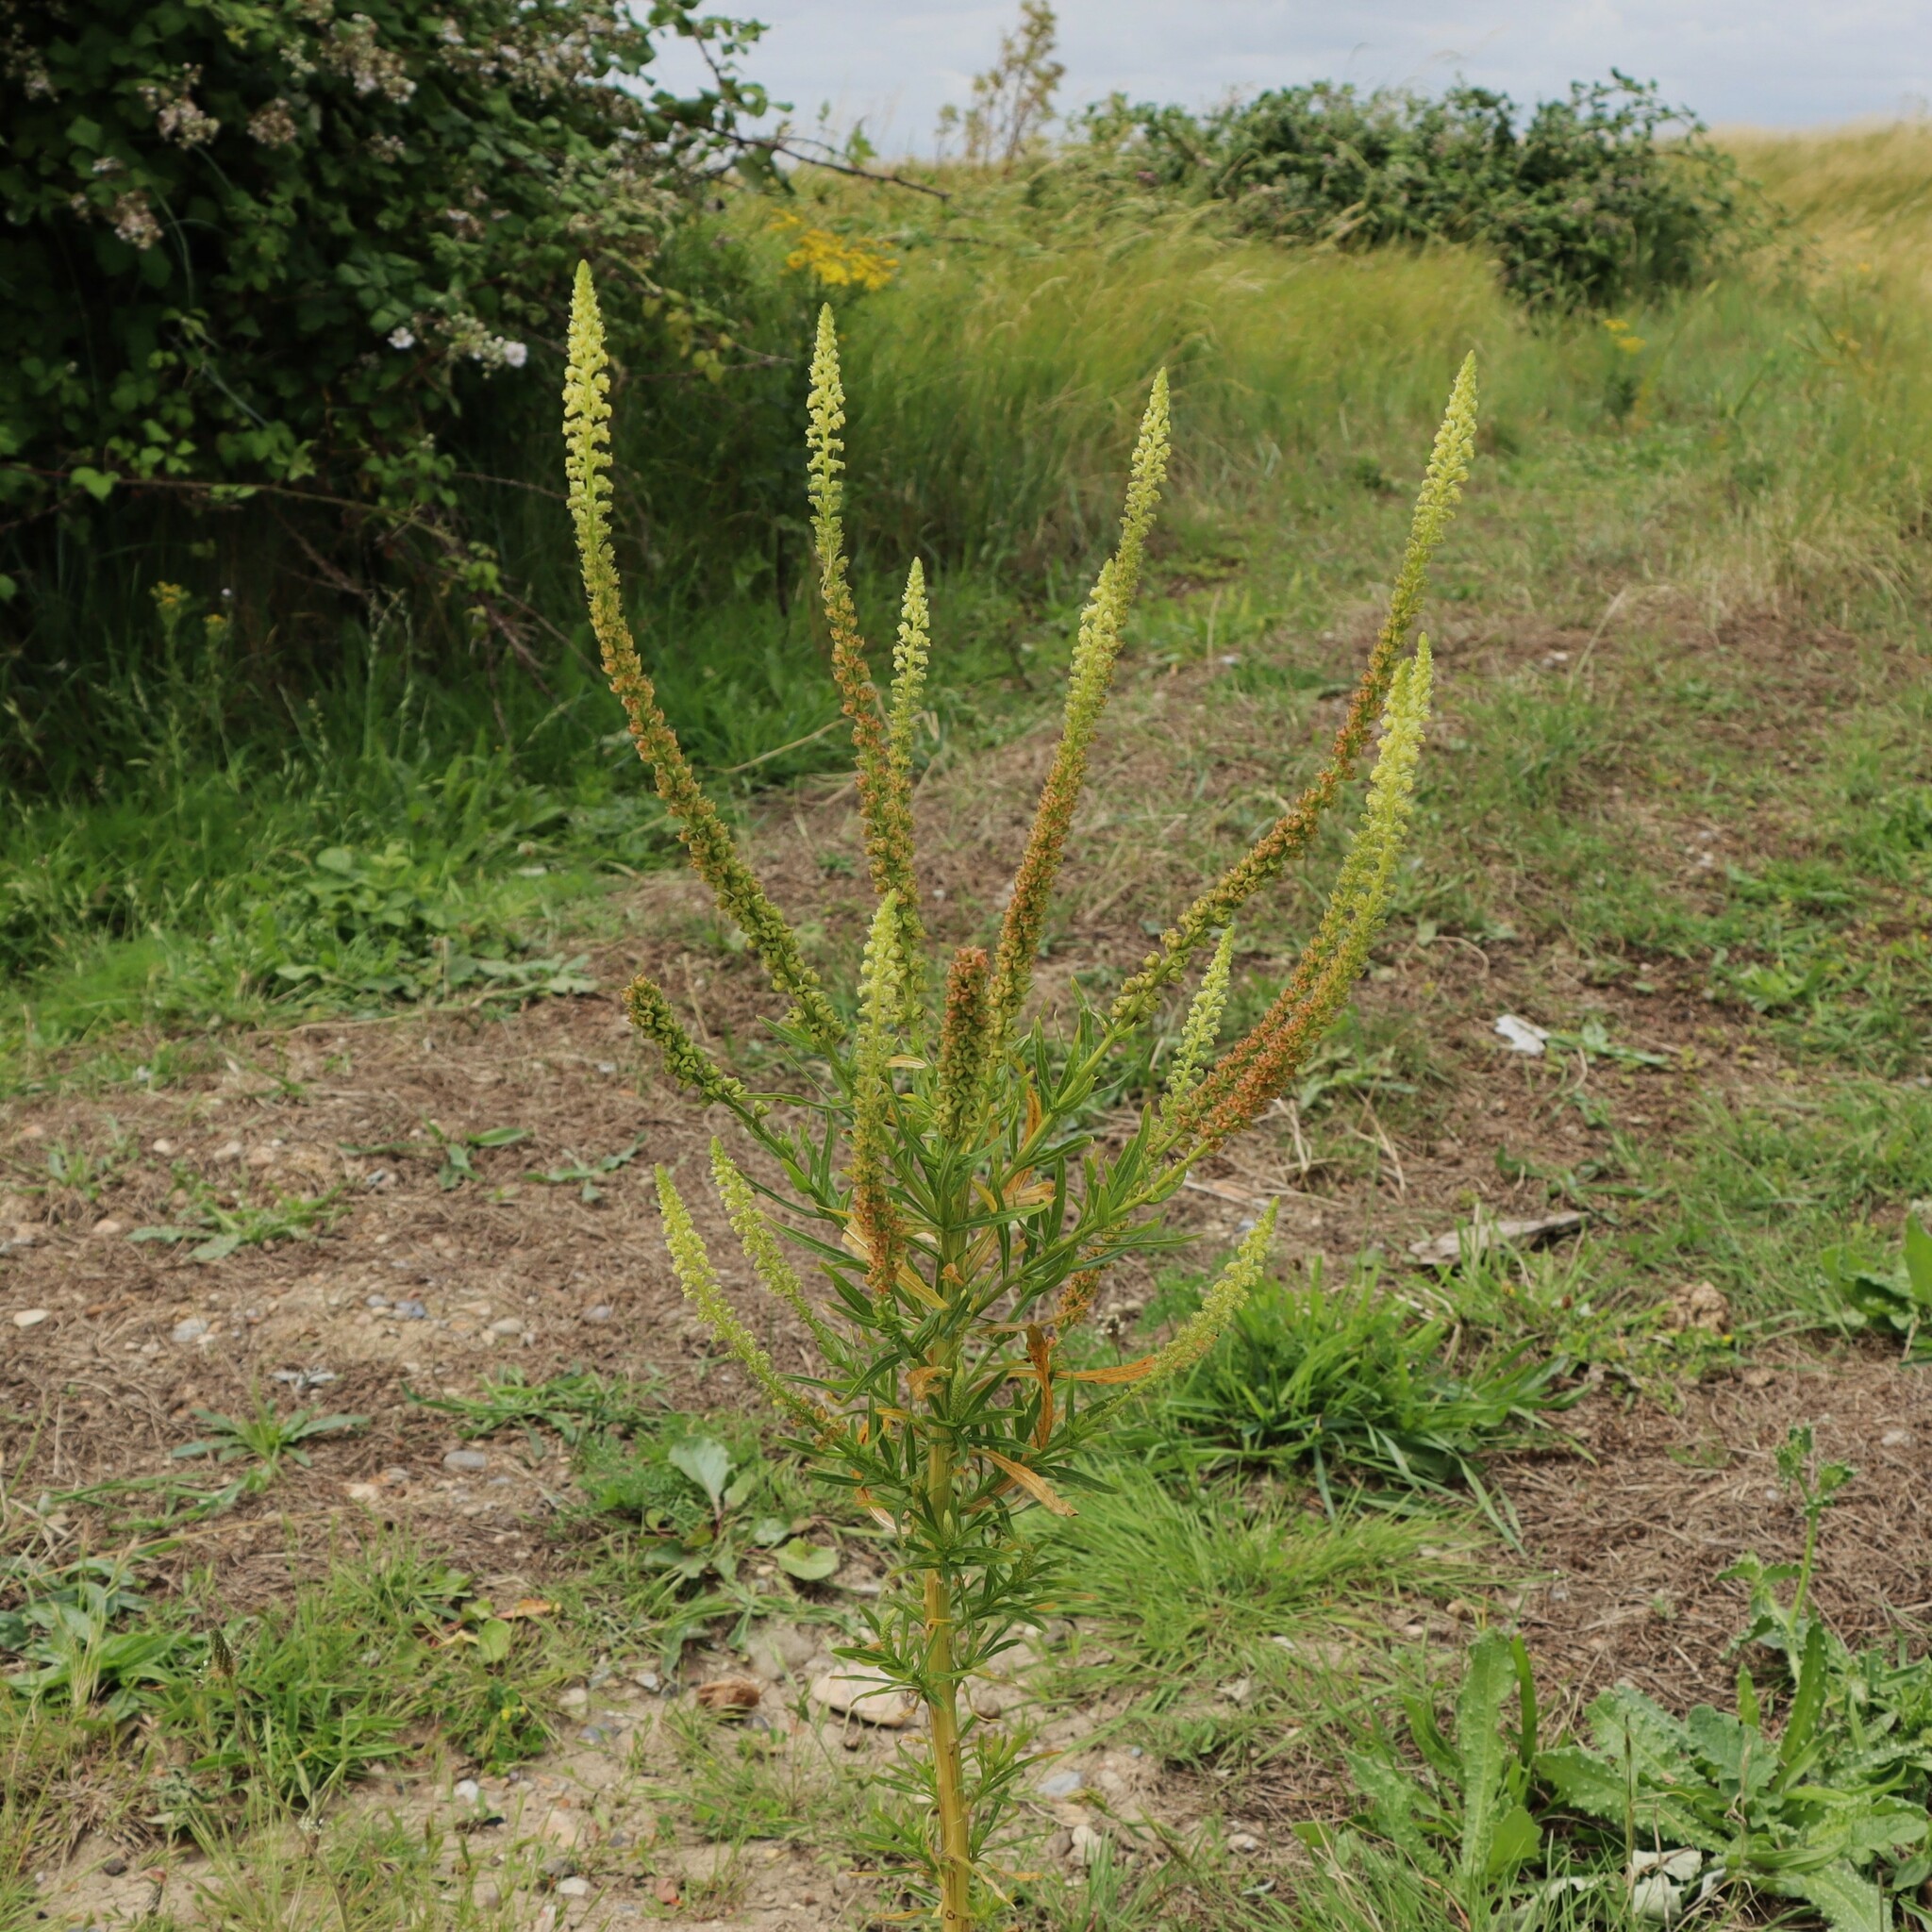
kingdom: Plantae
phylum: Tracheophyta
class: Magnoliopsida
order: Brassicales
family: Resedaceae
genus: Reseda
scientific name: Reseda luteola
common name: Weld
